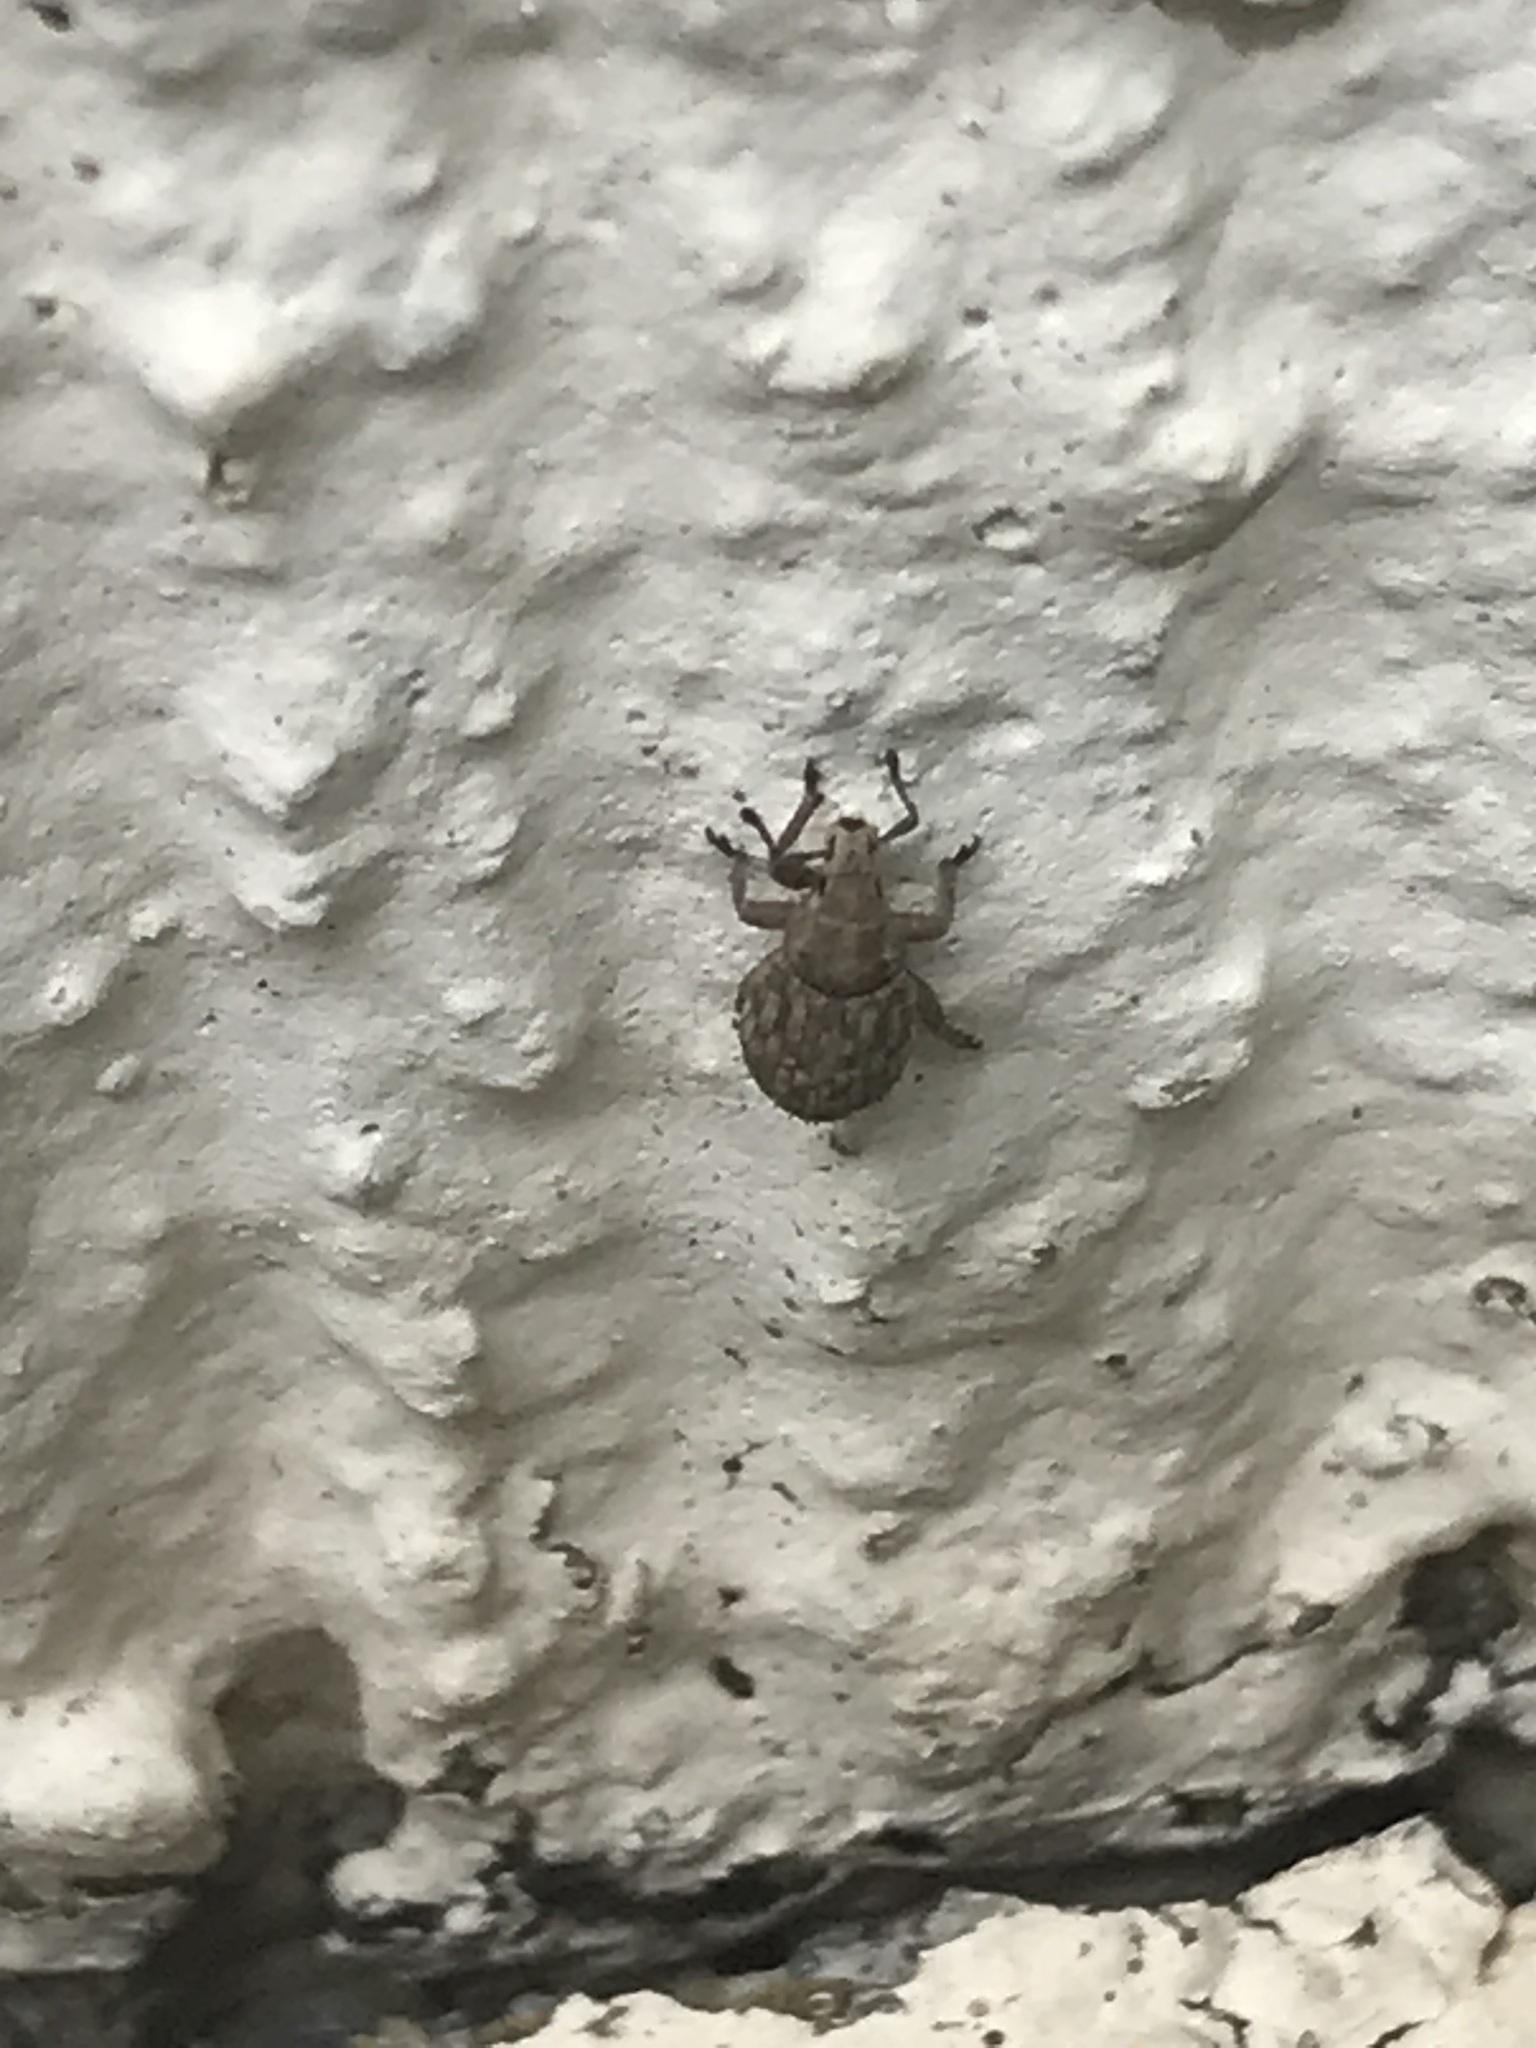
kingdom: Animalia
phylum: Arthropoda
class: Insecta
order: Coleoptera
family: Curculionidae
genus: Romualdius
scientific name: Romualdius scaber
